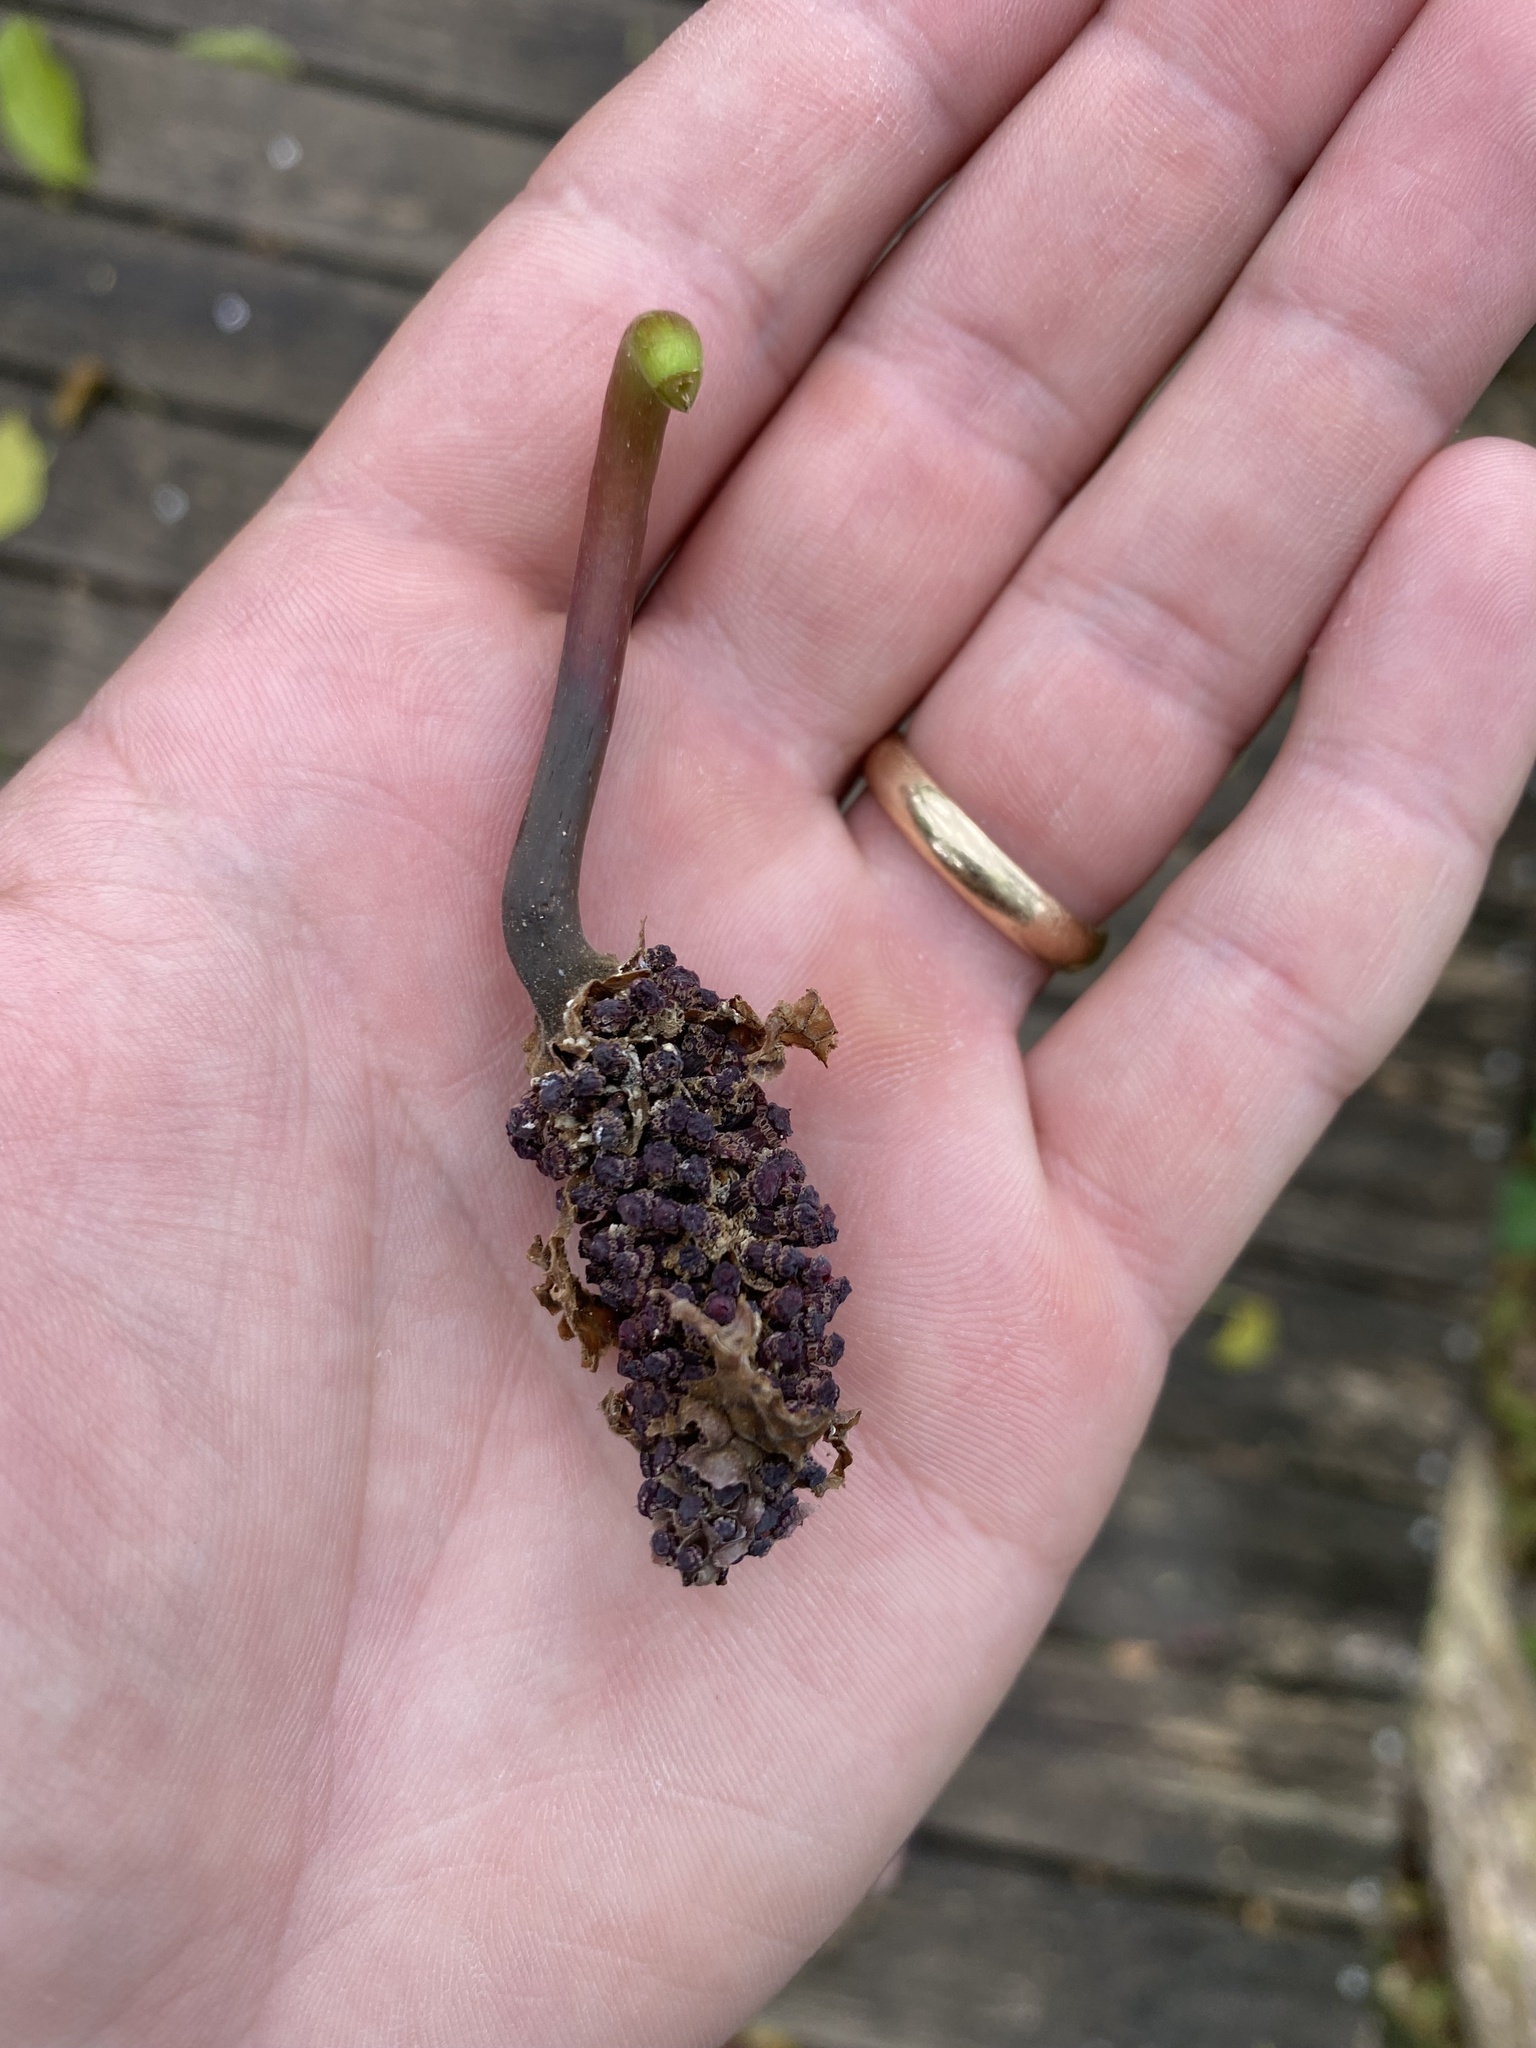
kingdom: Plantae
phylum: Tracheophyta
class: Magnoliopsida
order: Malpighiales
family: Euphorbiaceae
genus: Hura
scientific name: Hura crepitans
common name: Sandboxtree
